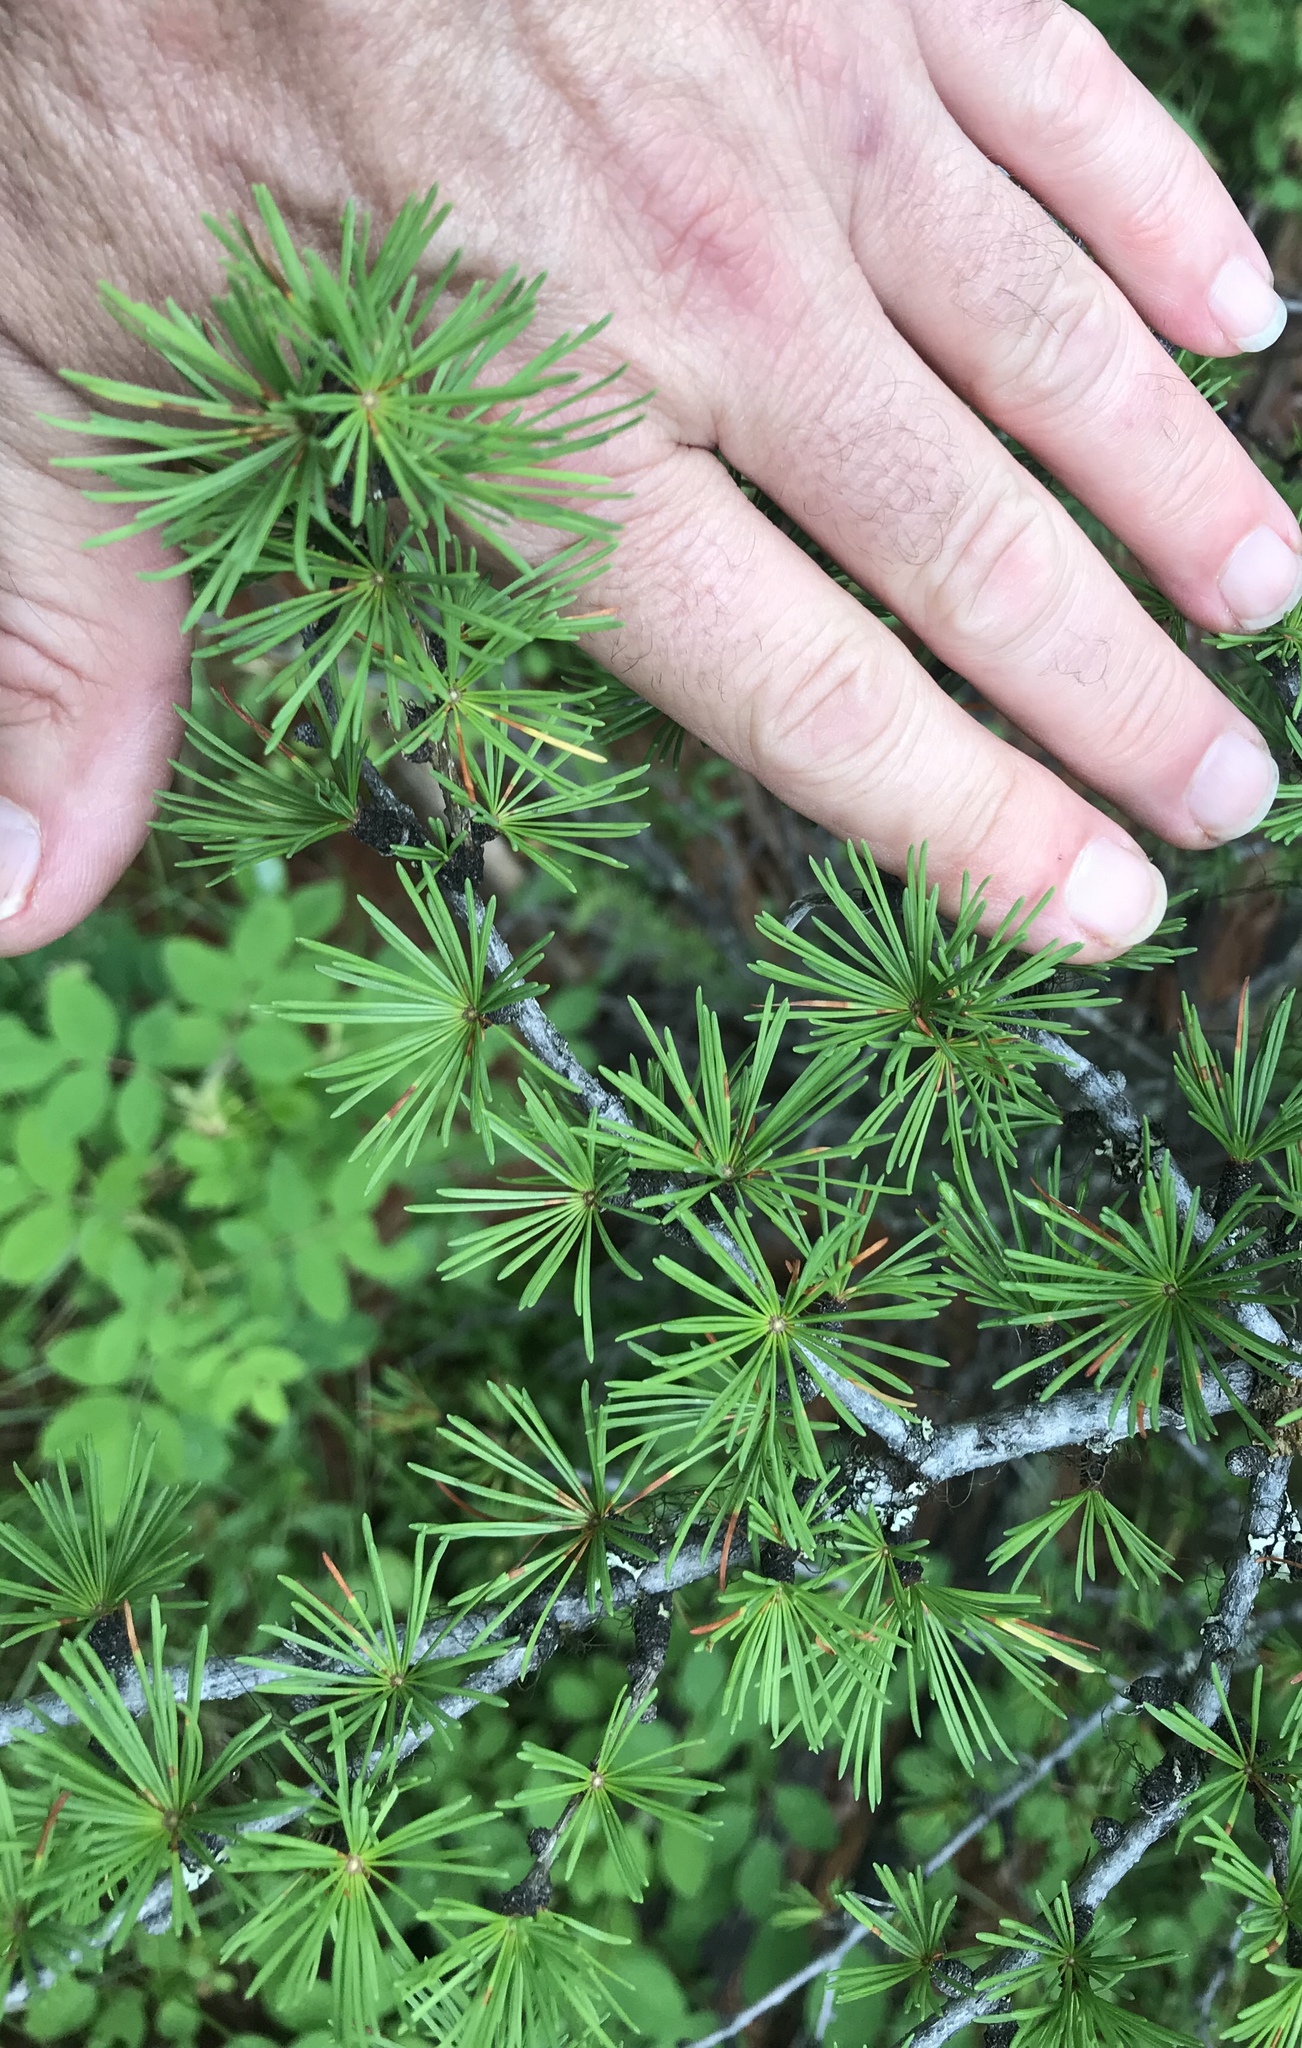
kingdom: Plantae
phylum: Tracheophyta
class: Pinopsida
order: Pinales
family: Pinaceae
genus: Larix
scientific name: Larix occidentalis
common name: Western larch
